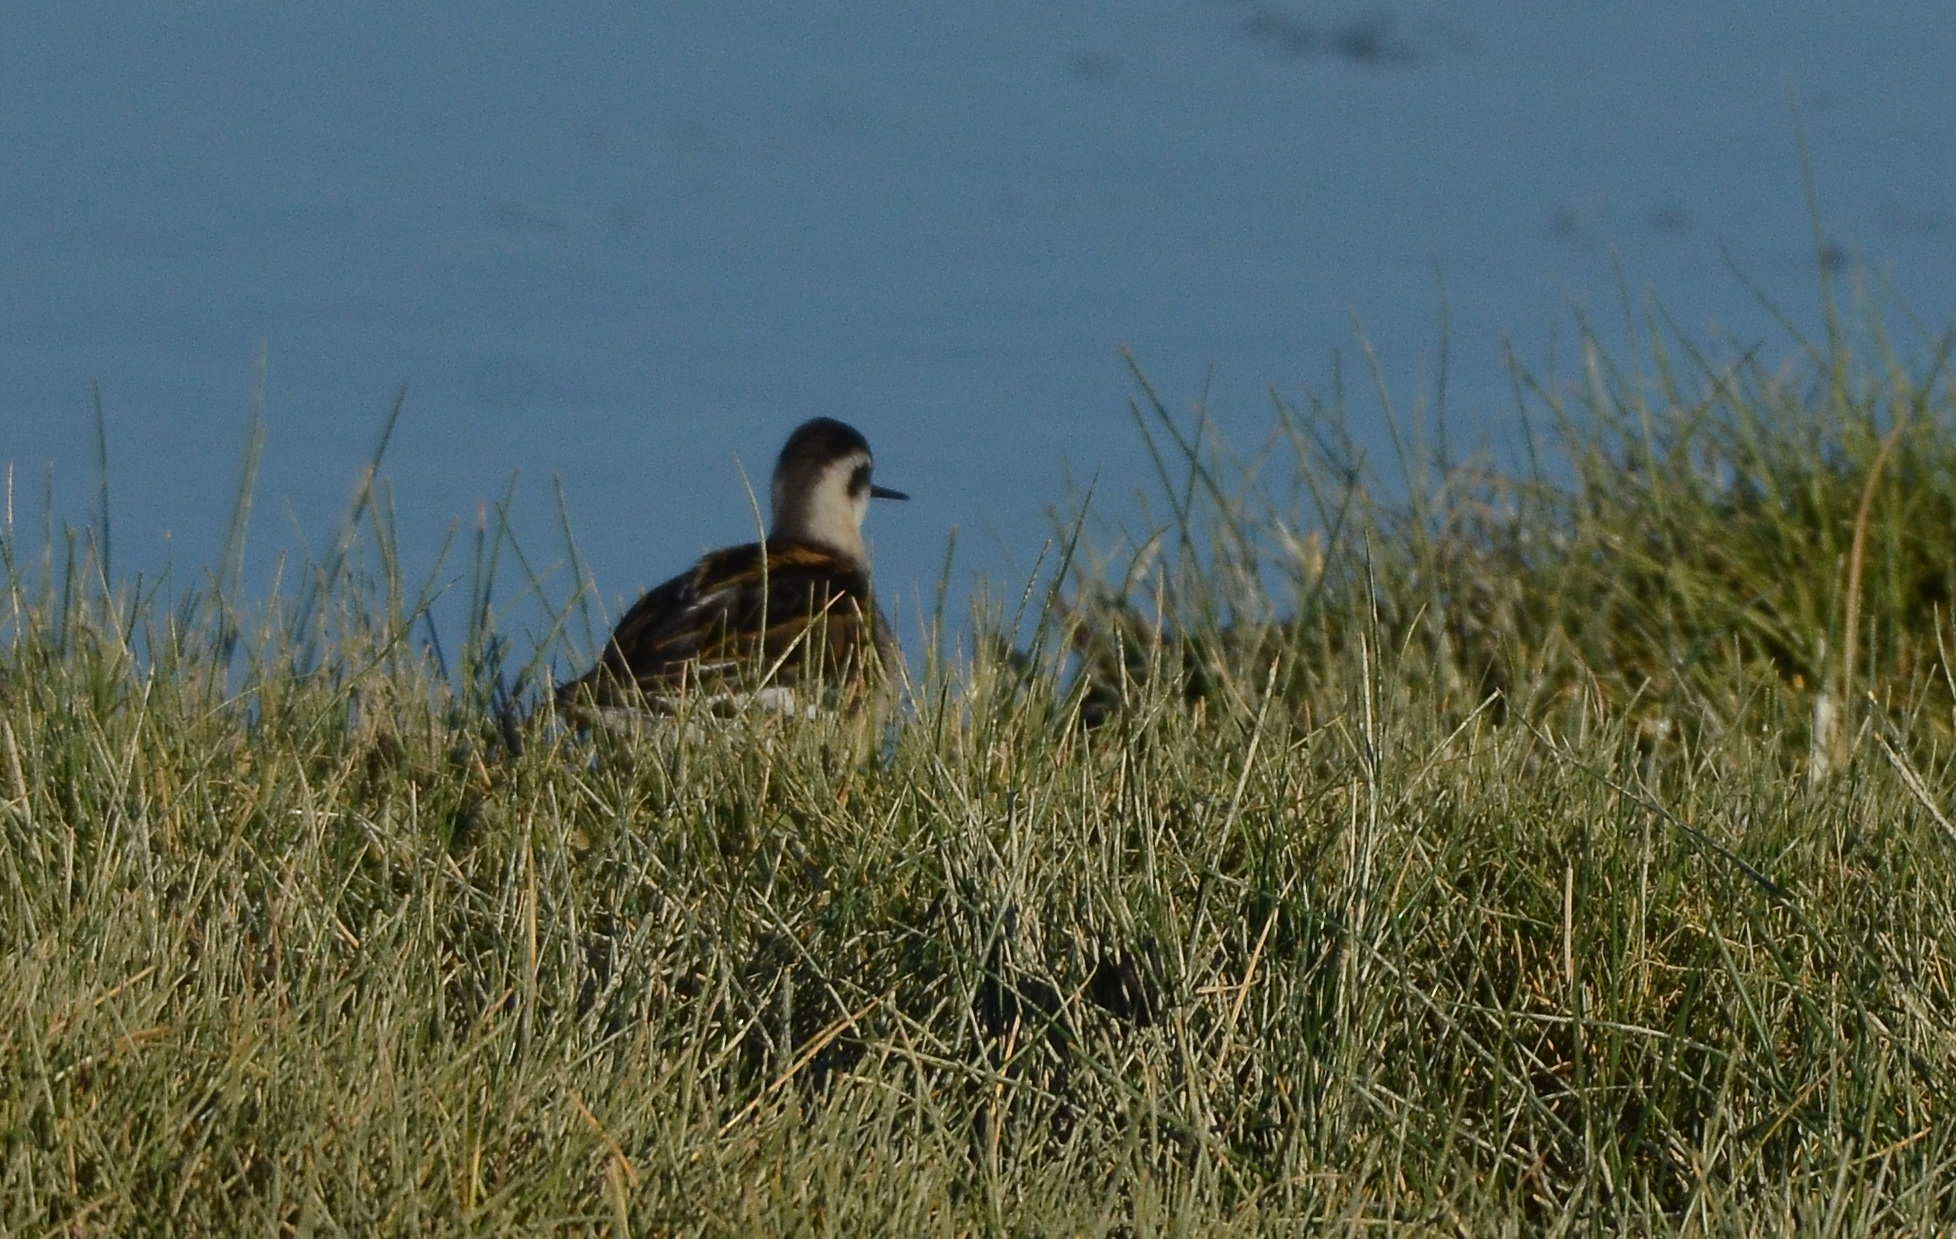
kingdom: Animalia
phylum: Chordata
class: Aves
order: Charadriiformes
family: Scolopacidae
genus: Phalaropus
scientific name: Phalaropus lobatus
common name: Red-necked phalarope
